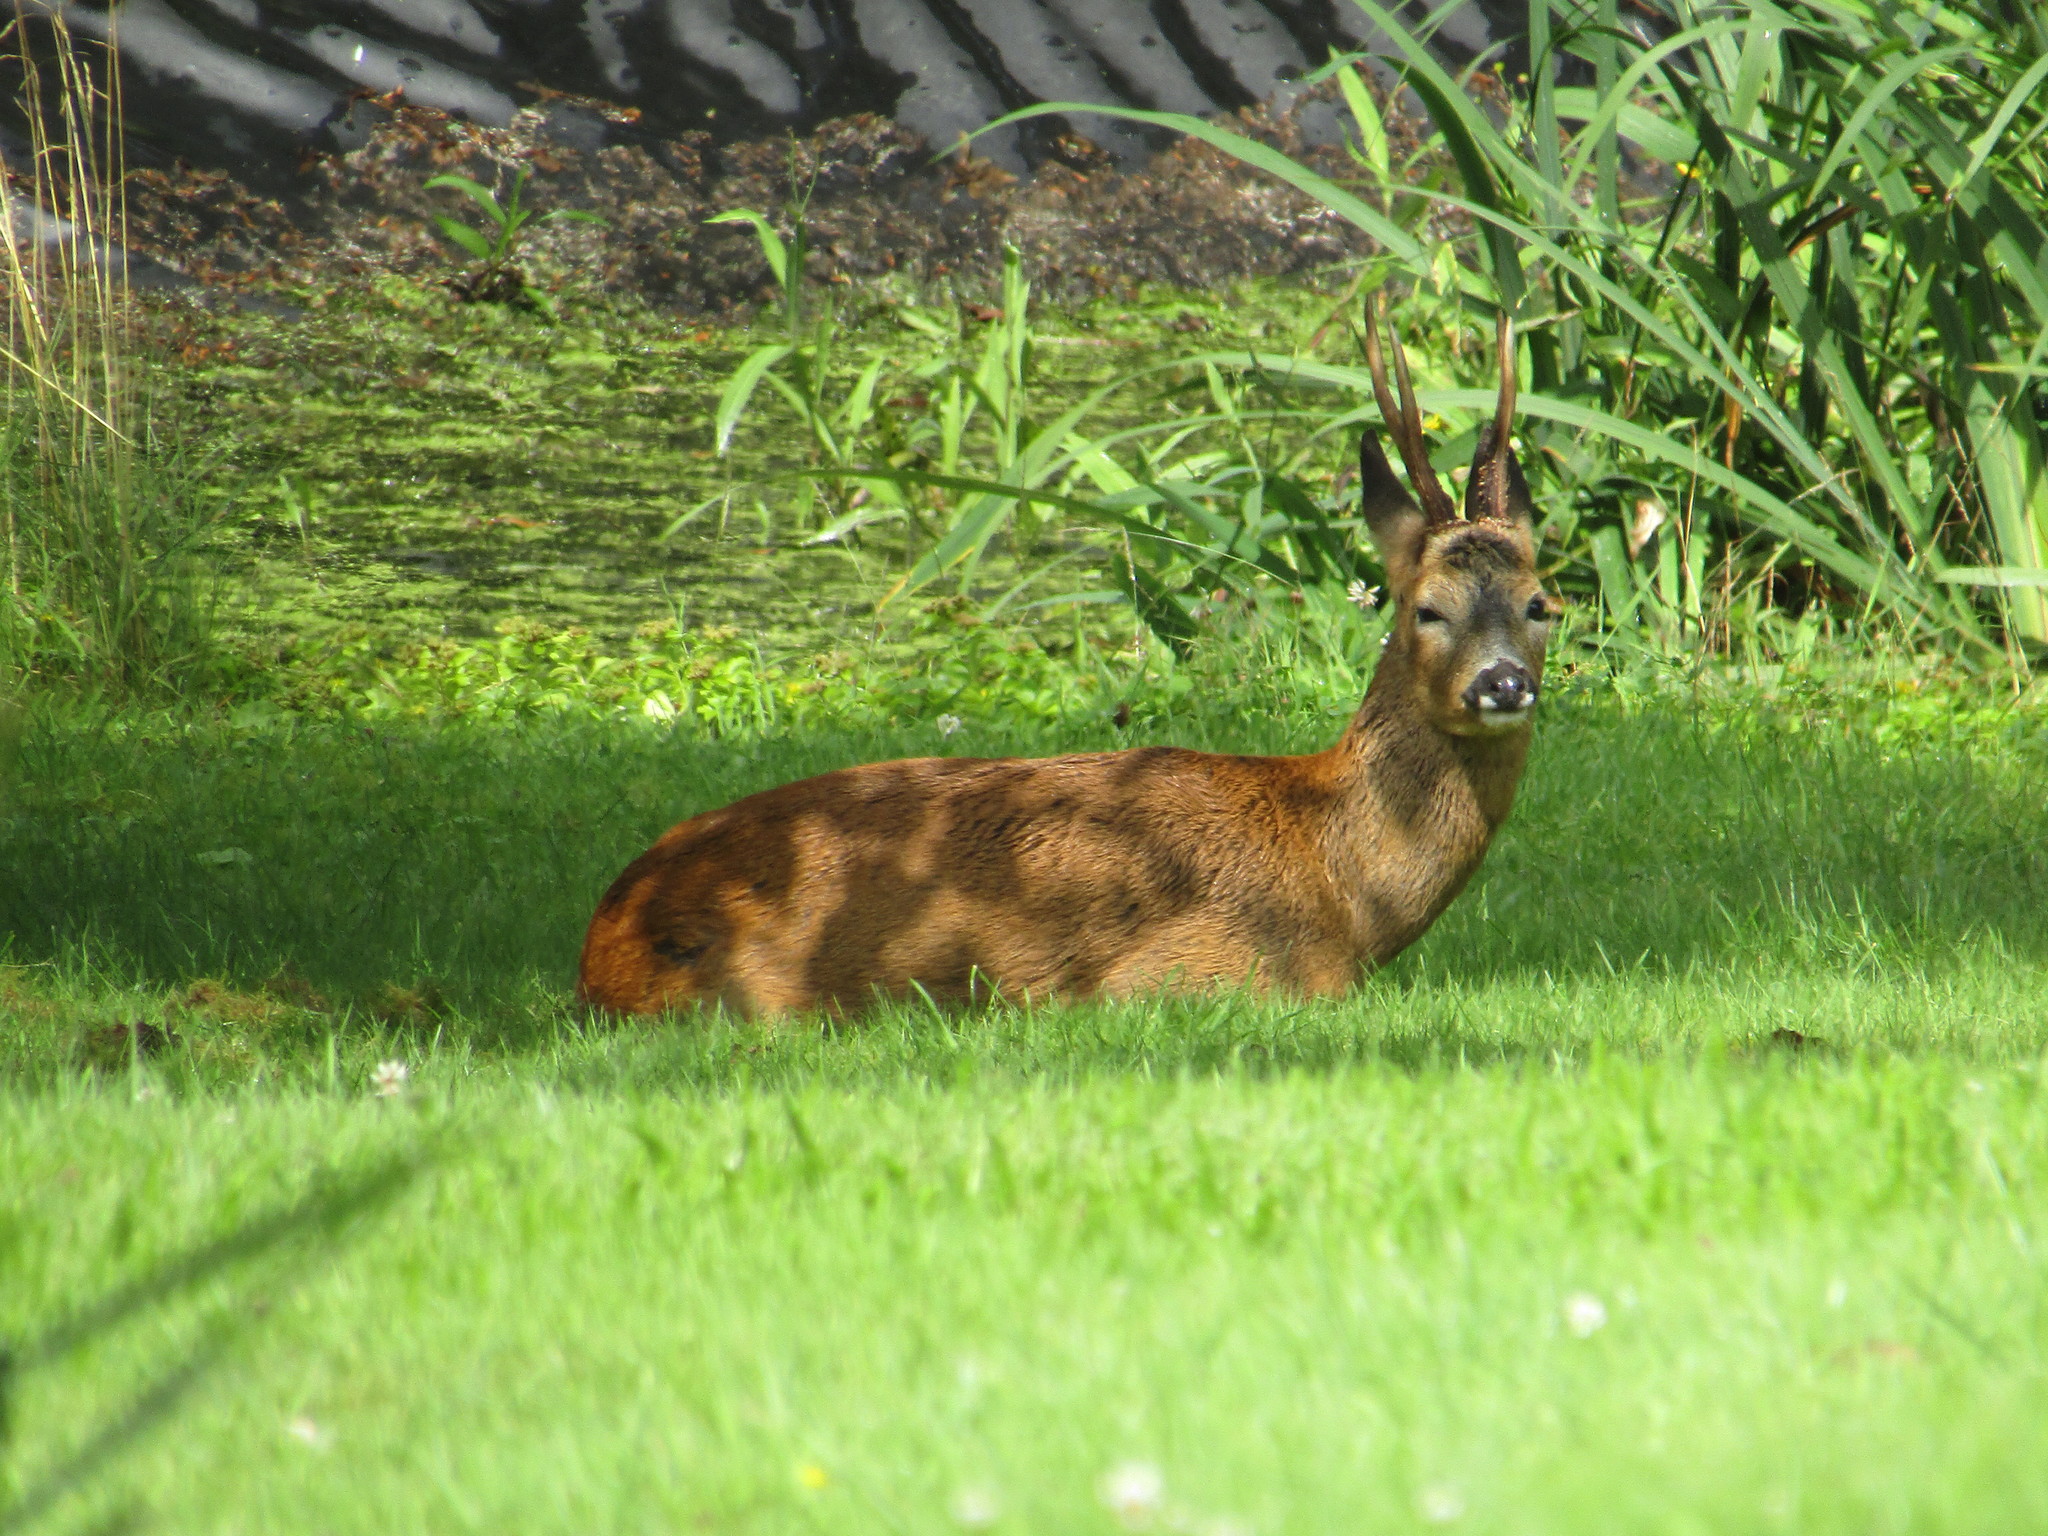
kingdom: Animalia
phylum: Chordata
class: Mammalia
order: Artiodactyla
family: Cervidae
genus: Capreolus
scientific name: Capreolus capreolus
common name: Western roe deer
